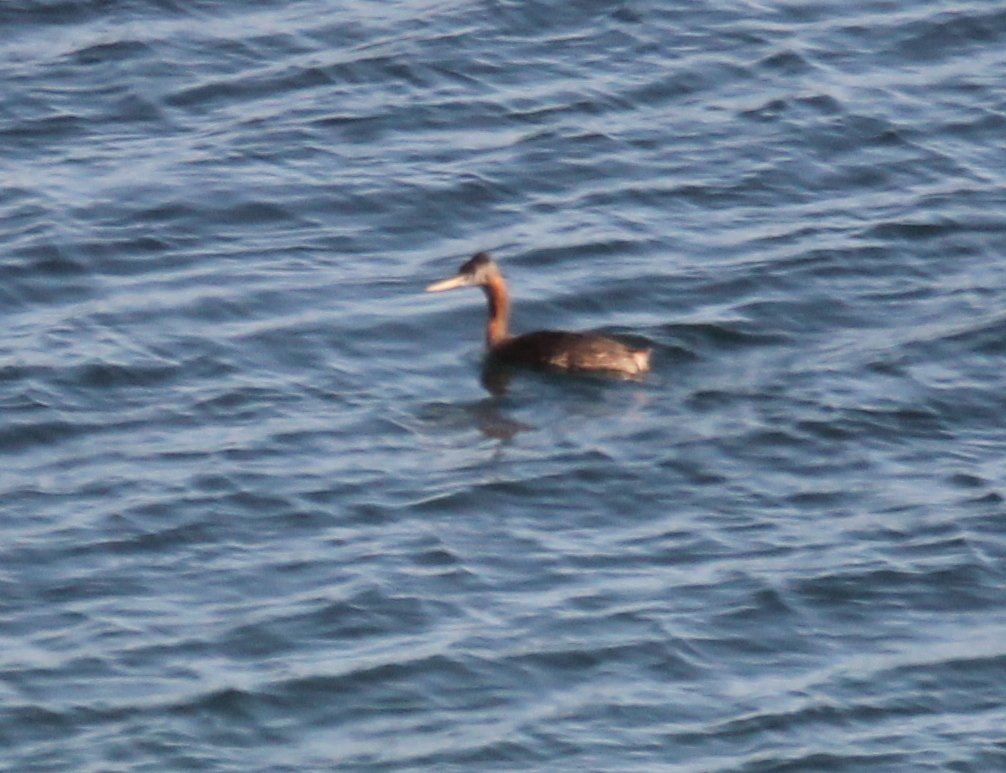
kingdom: Animalia
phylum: Chordata
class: Aves
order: Podicipediformes
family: Podicipedidae
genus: Podiceps
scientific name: Podiceps major
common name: Great grebe
